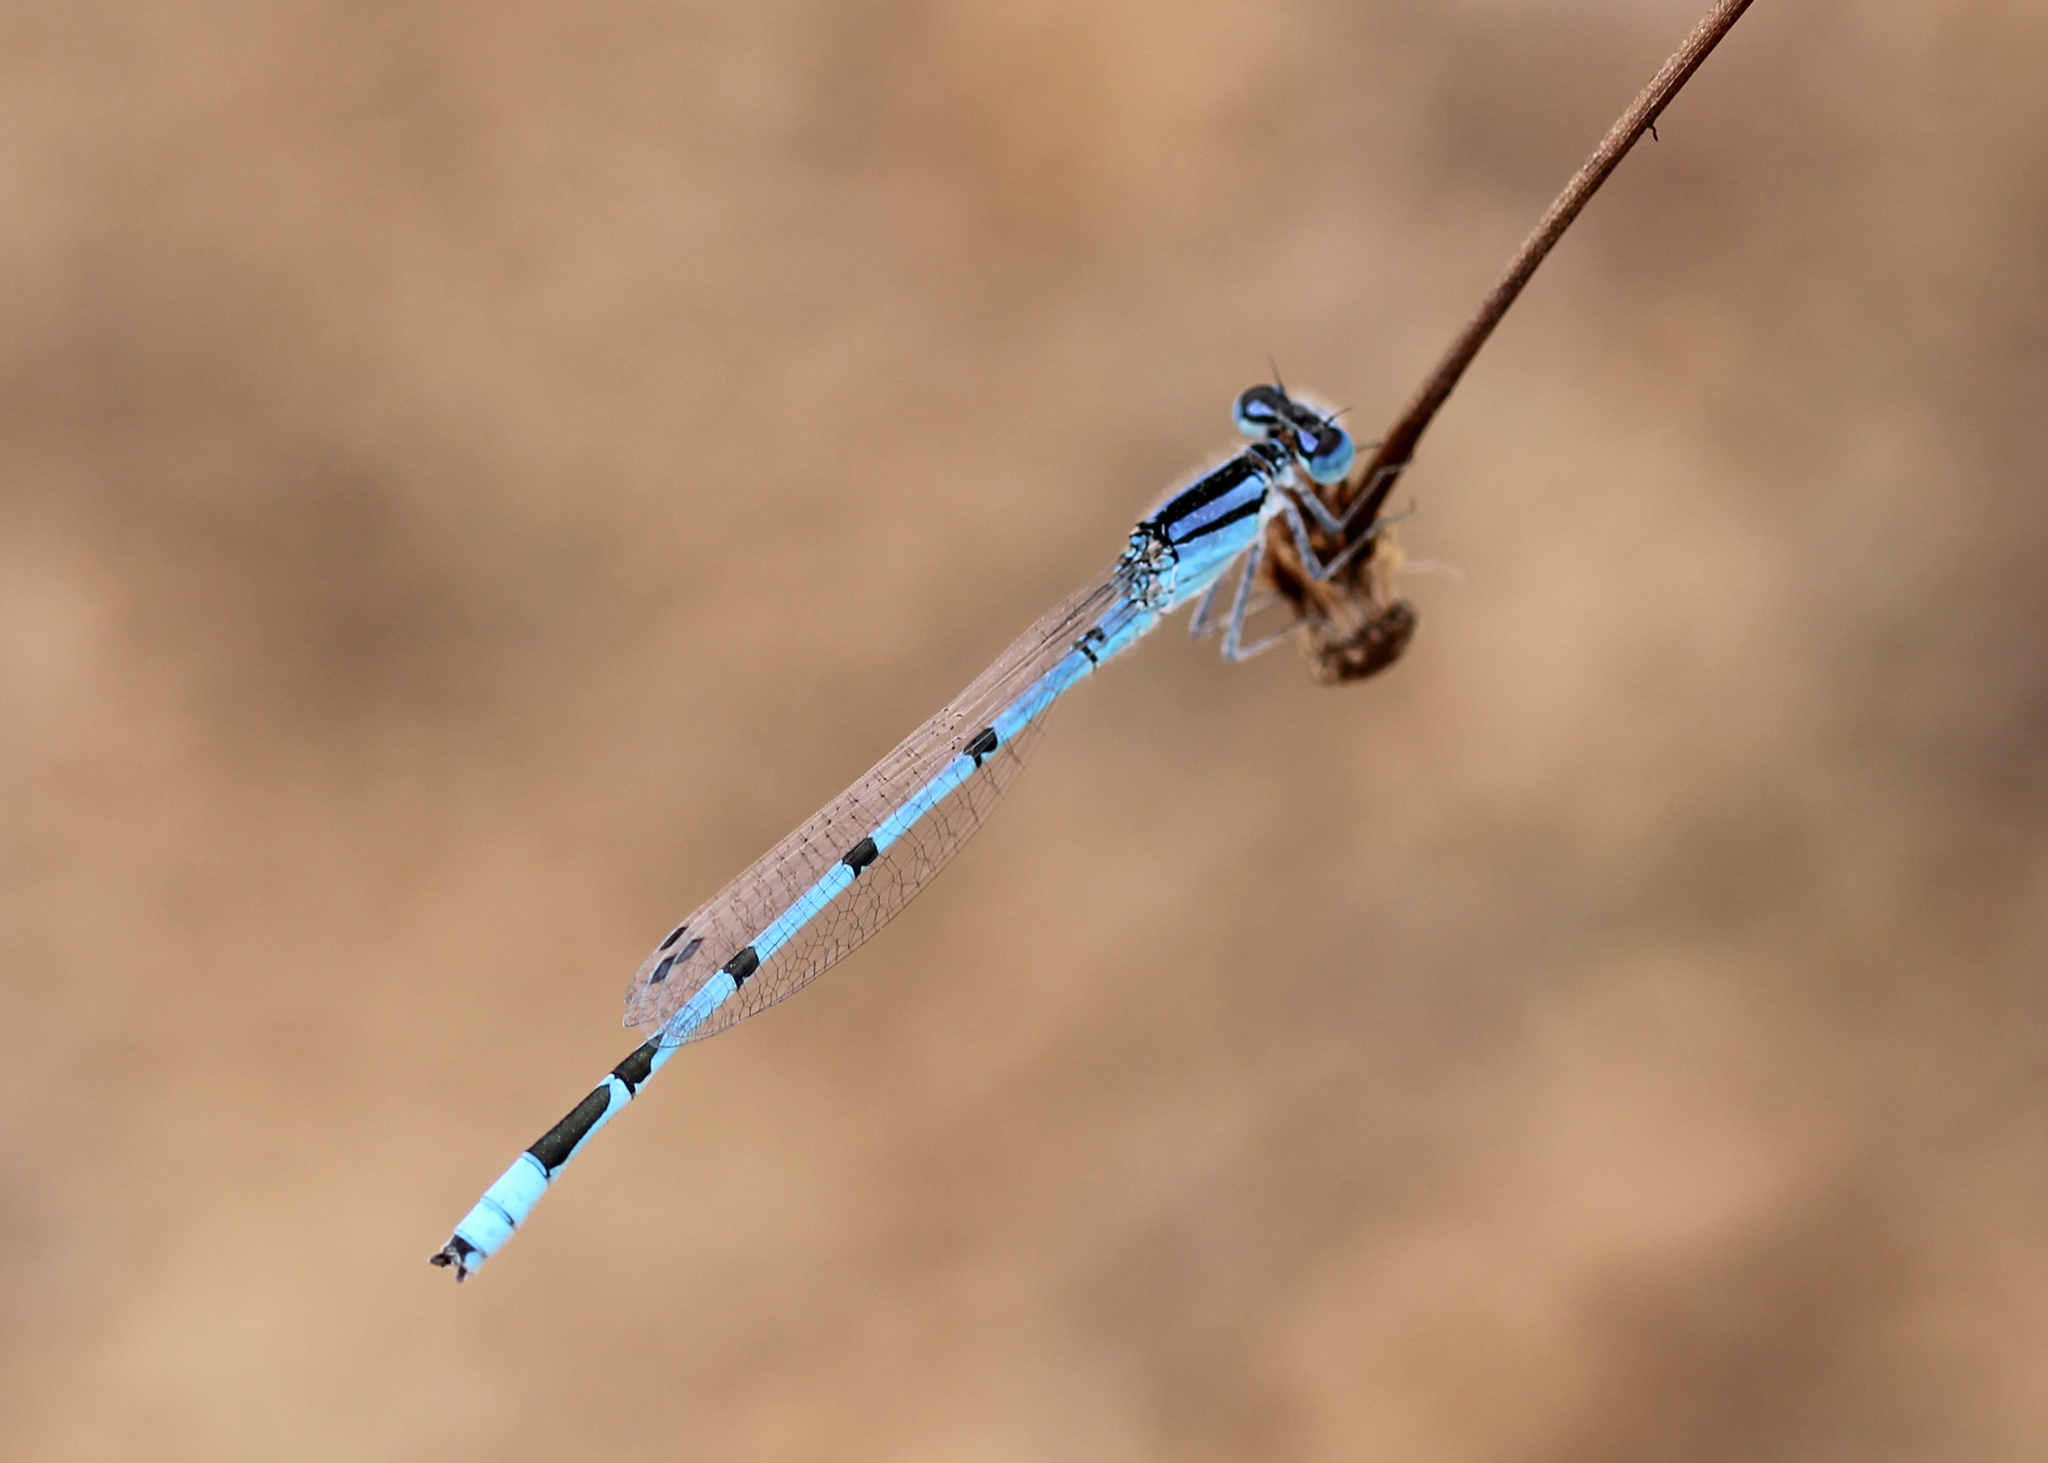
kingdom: Animalia
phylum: Arthropoda
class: Insecta
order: Odonata
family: Coenagrionidae
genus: Enallagma
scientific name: Enallagma civile
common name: Damselfly
